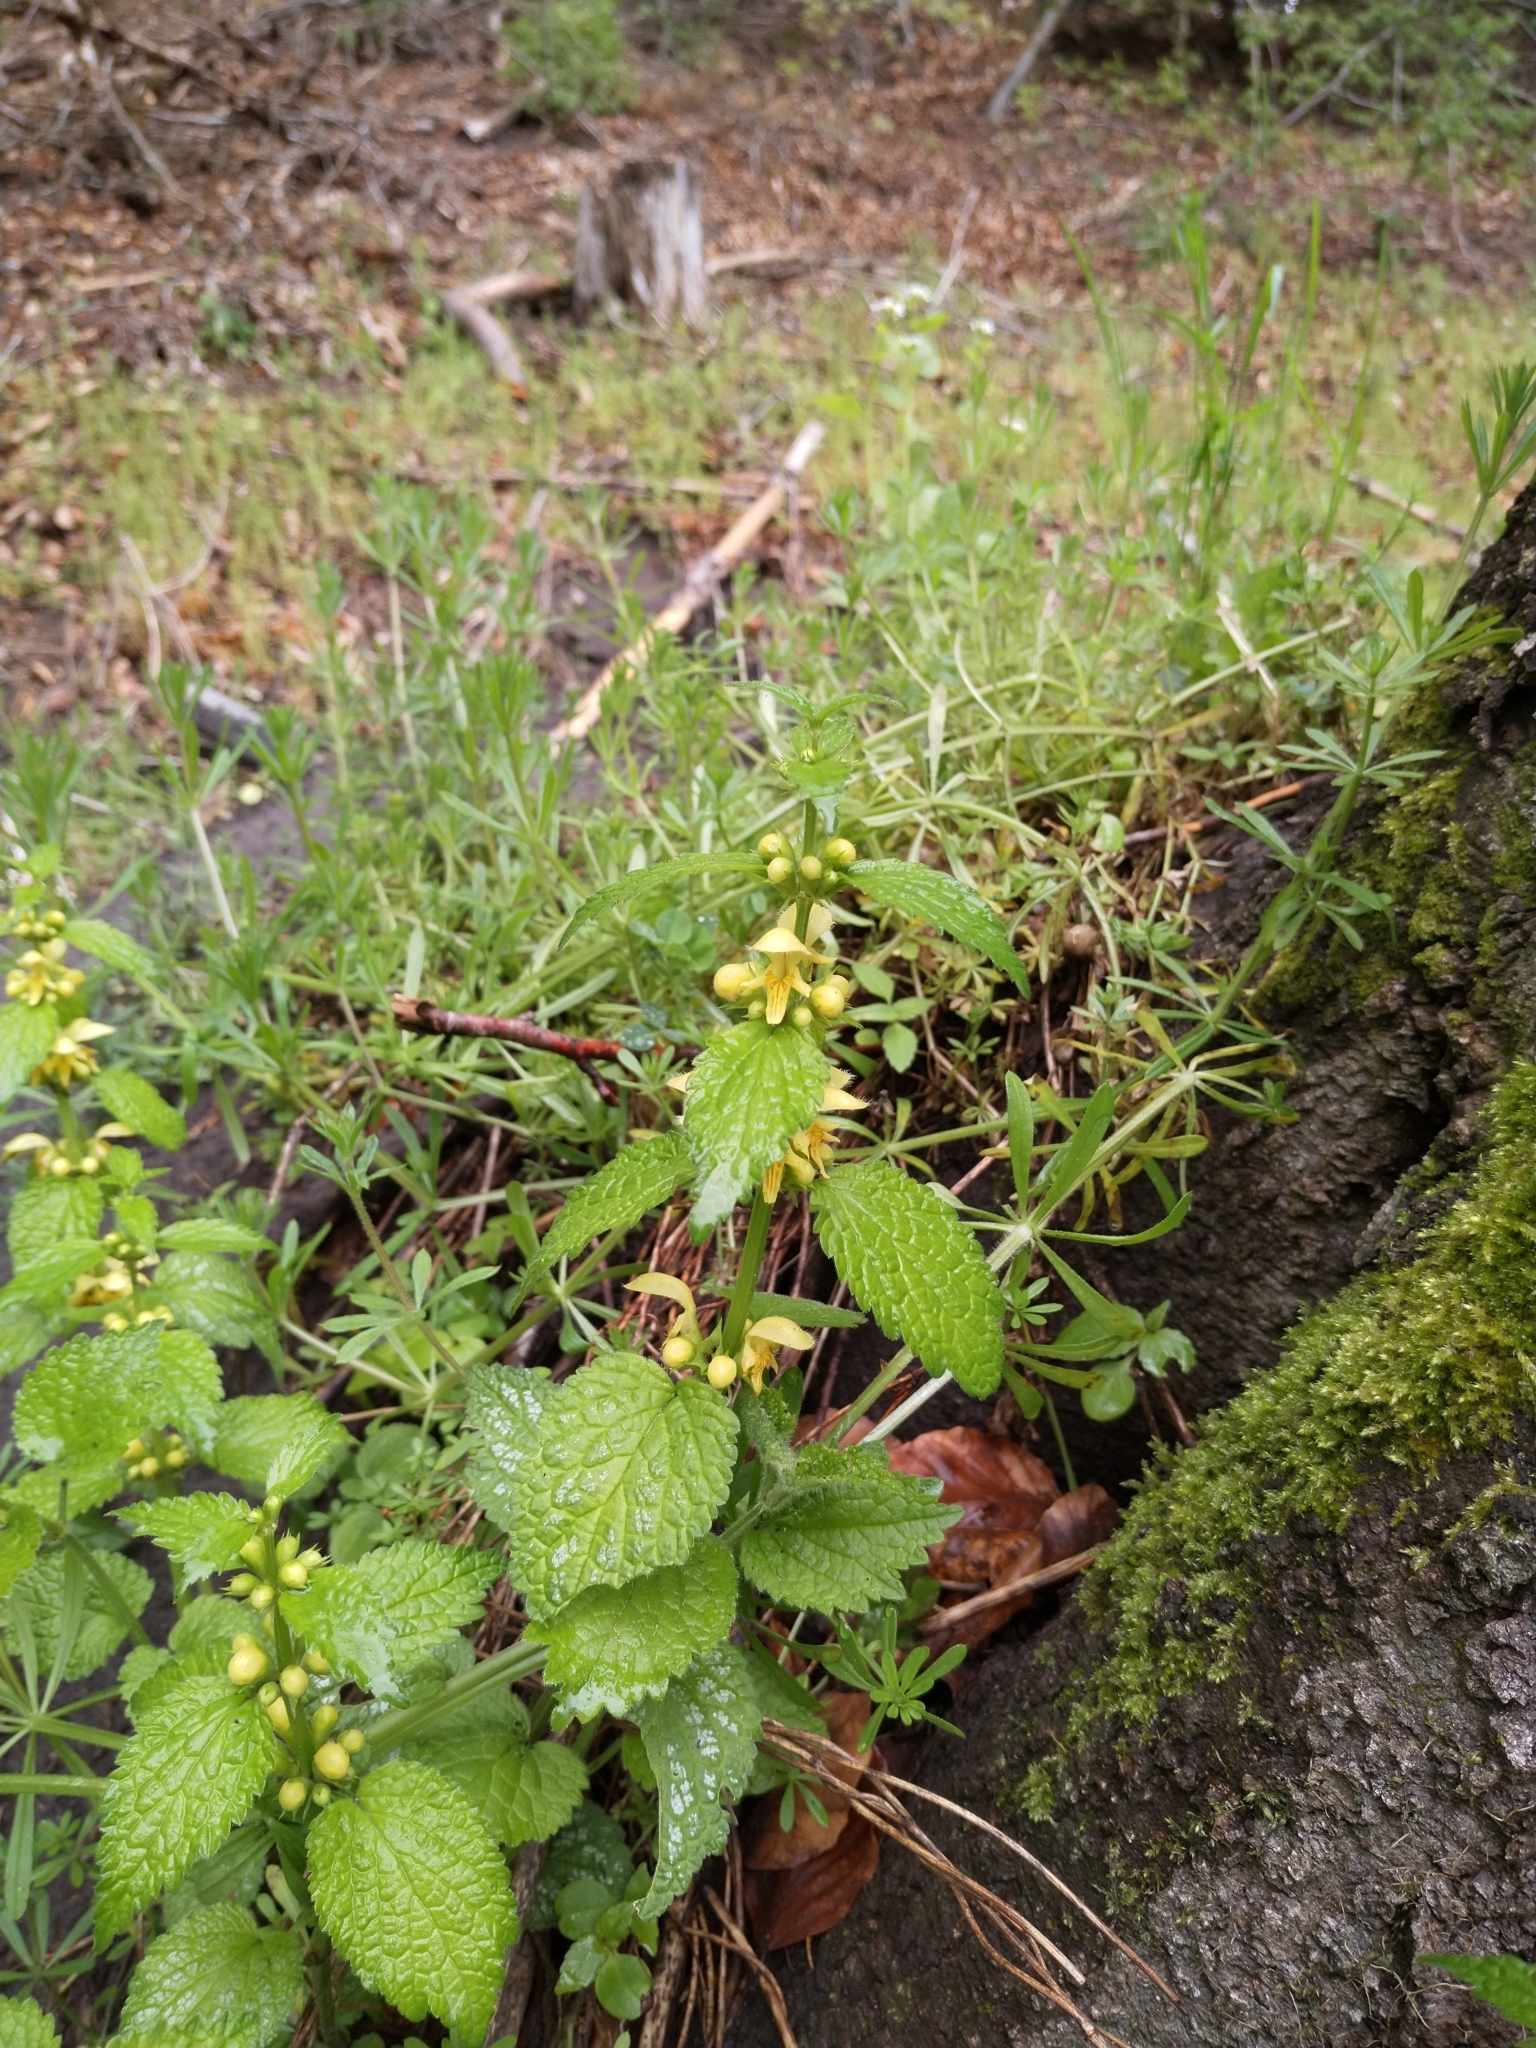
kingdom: Plantae
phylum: Tracheophyta
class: Magnoliopsida
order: Lamiales
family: Lamiaceae
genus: Lamium
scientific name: Lamium galeobdolon
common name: Yellow archangel
